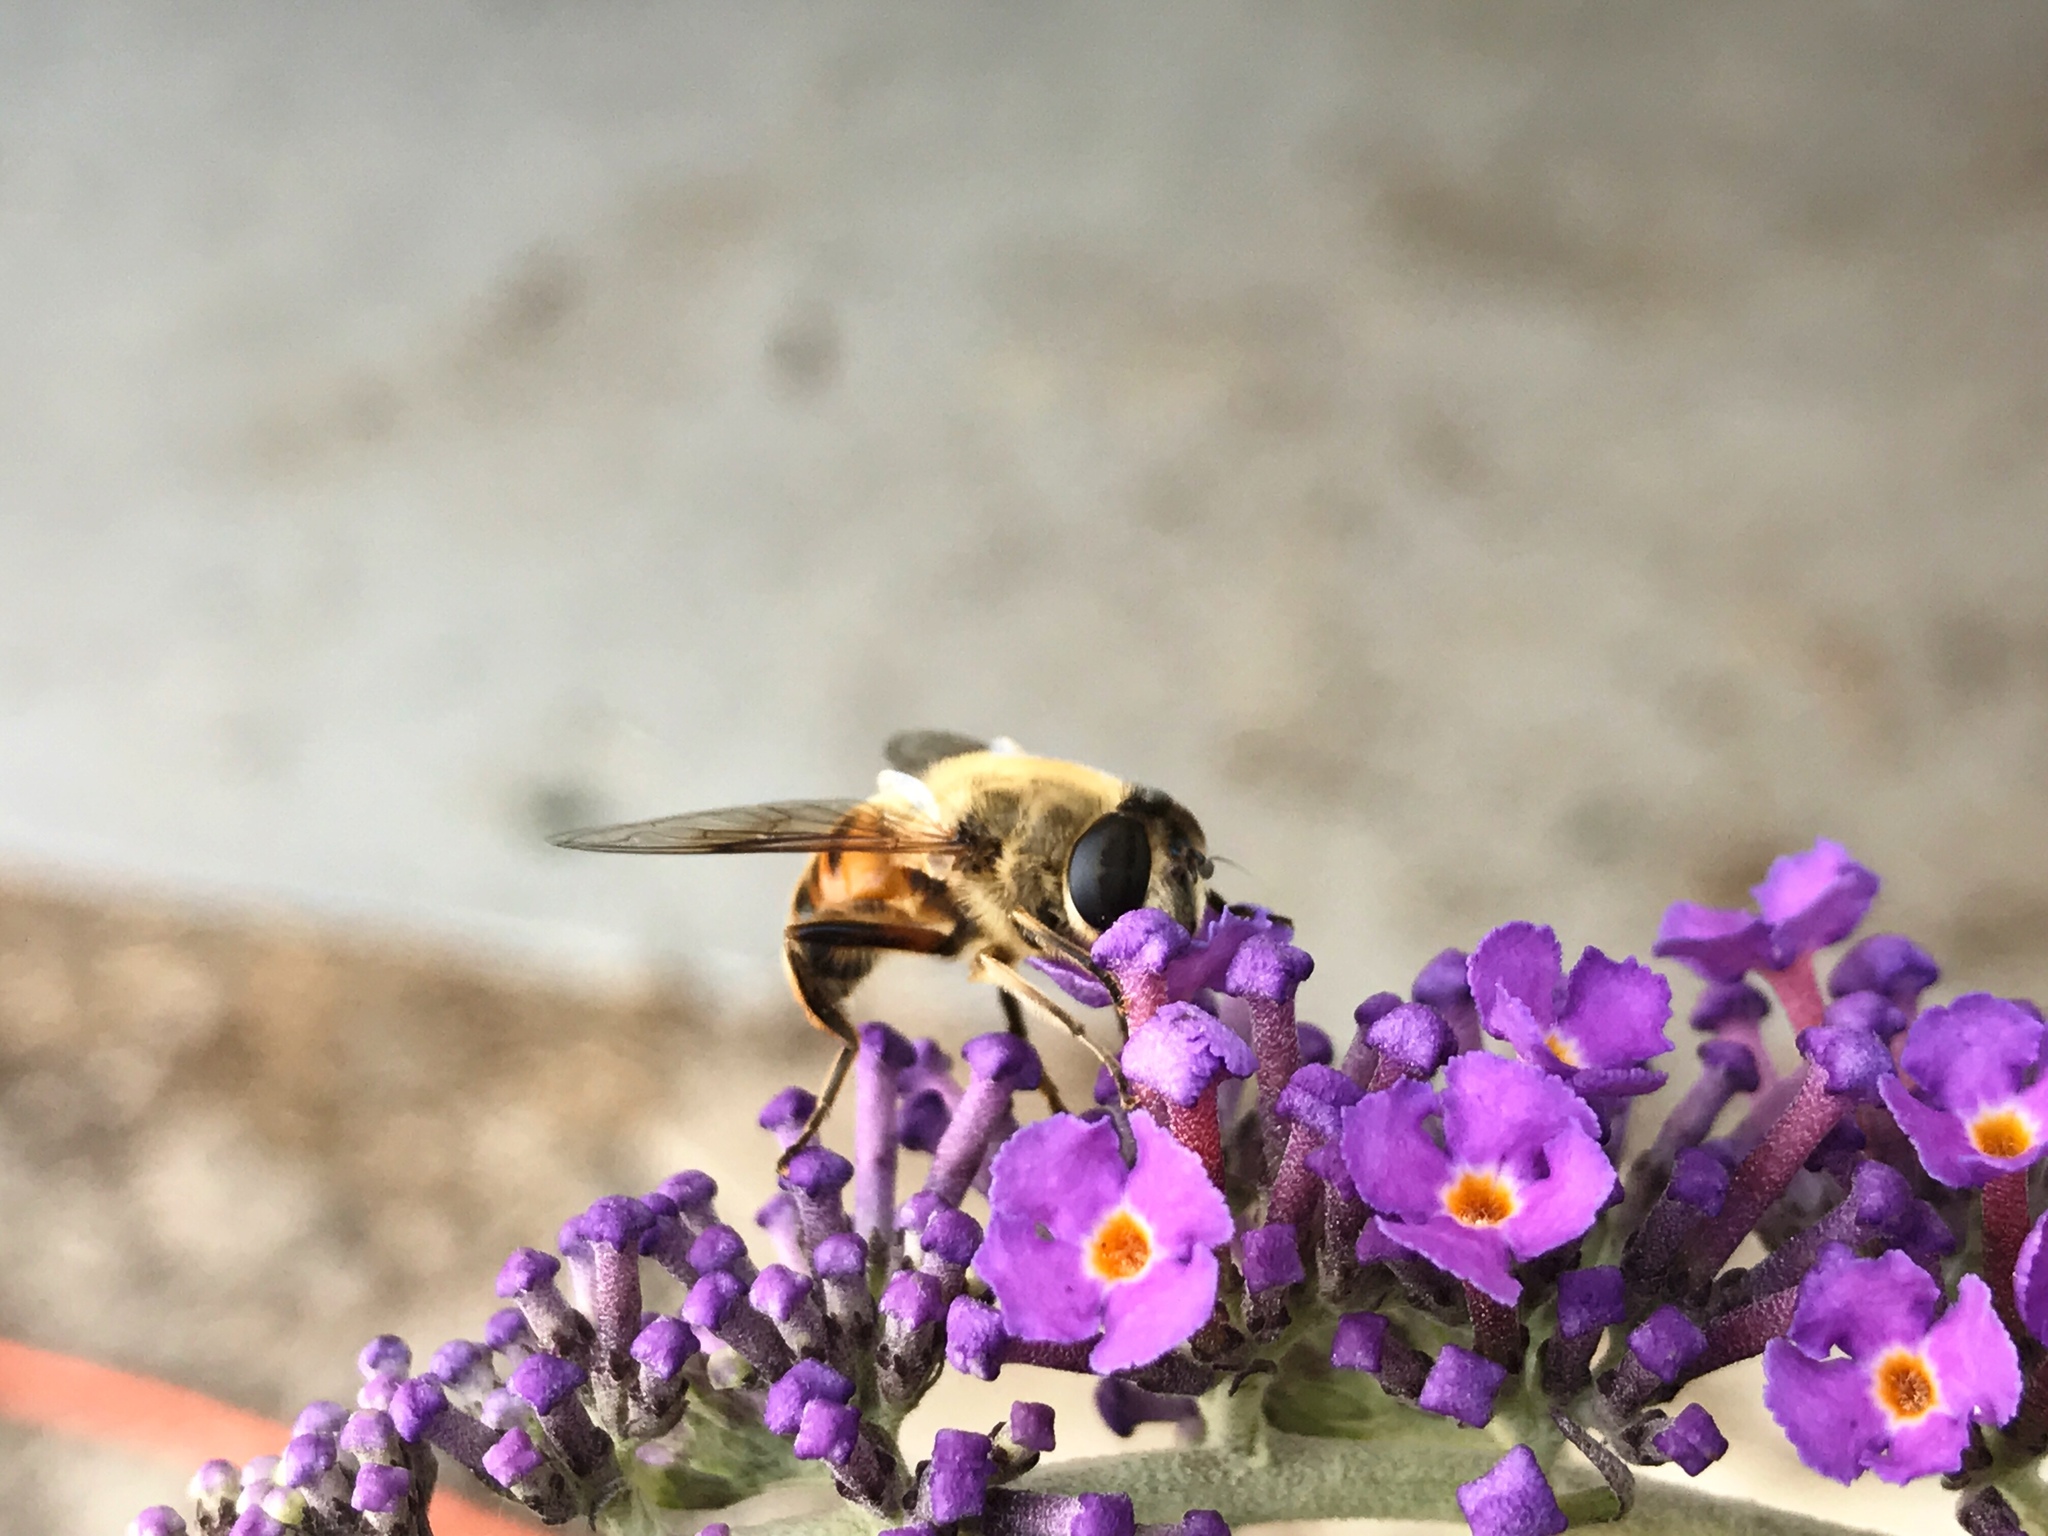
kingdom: Animalia
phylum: Arthropoda
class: Insecta
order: Diptera
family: Syrphidae
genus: Eristalis
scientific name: Eristalis tenax
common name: Drone fly
